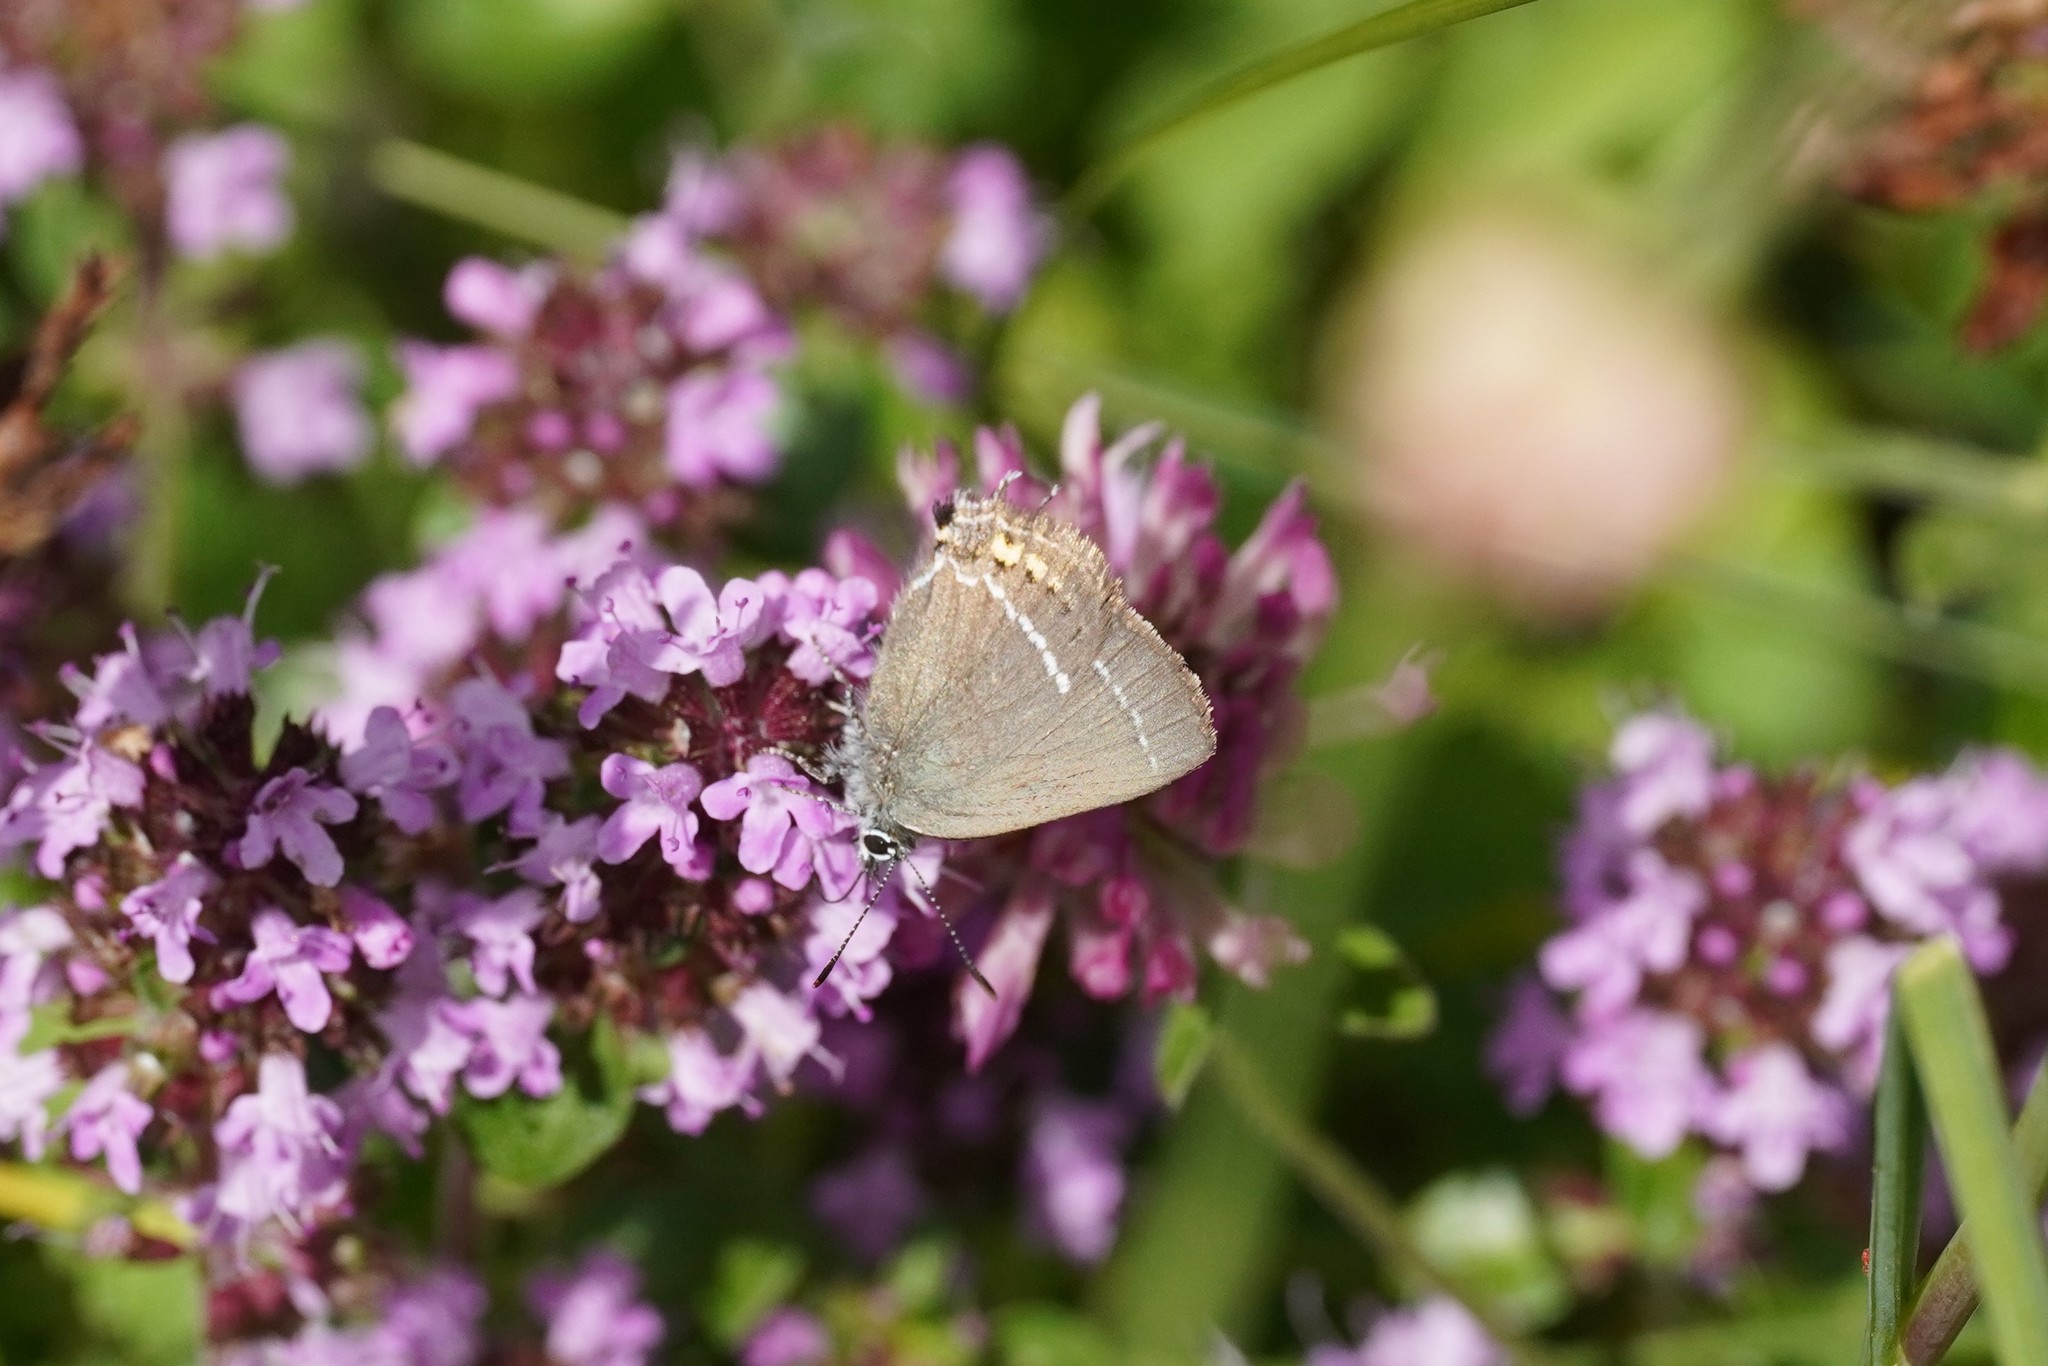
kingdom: Animalia
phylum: Arthropoda
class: Insecta
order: Lepidoptera
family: Lycaenidae
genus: Tuttiola
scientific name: Tuttiola spini
